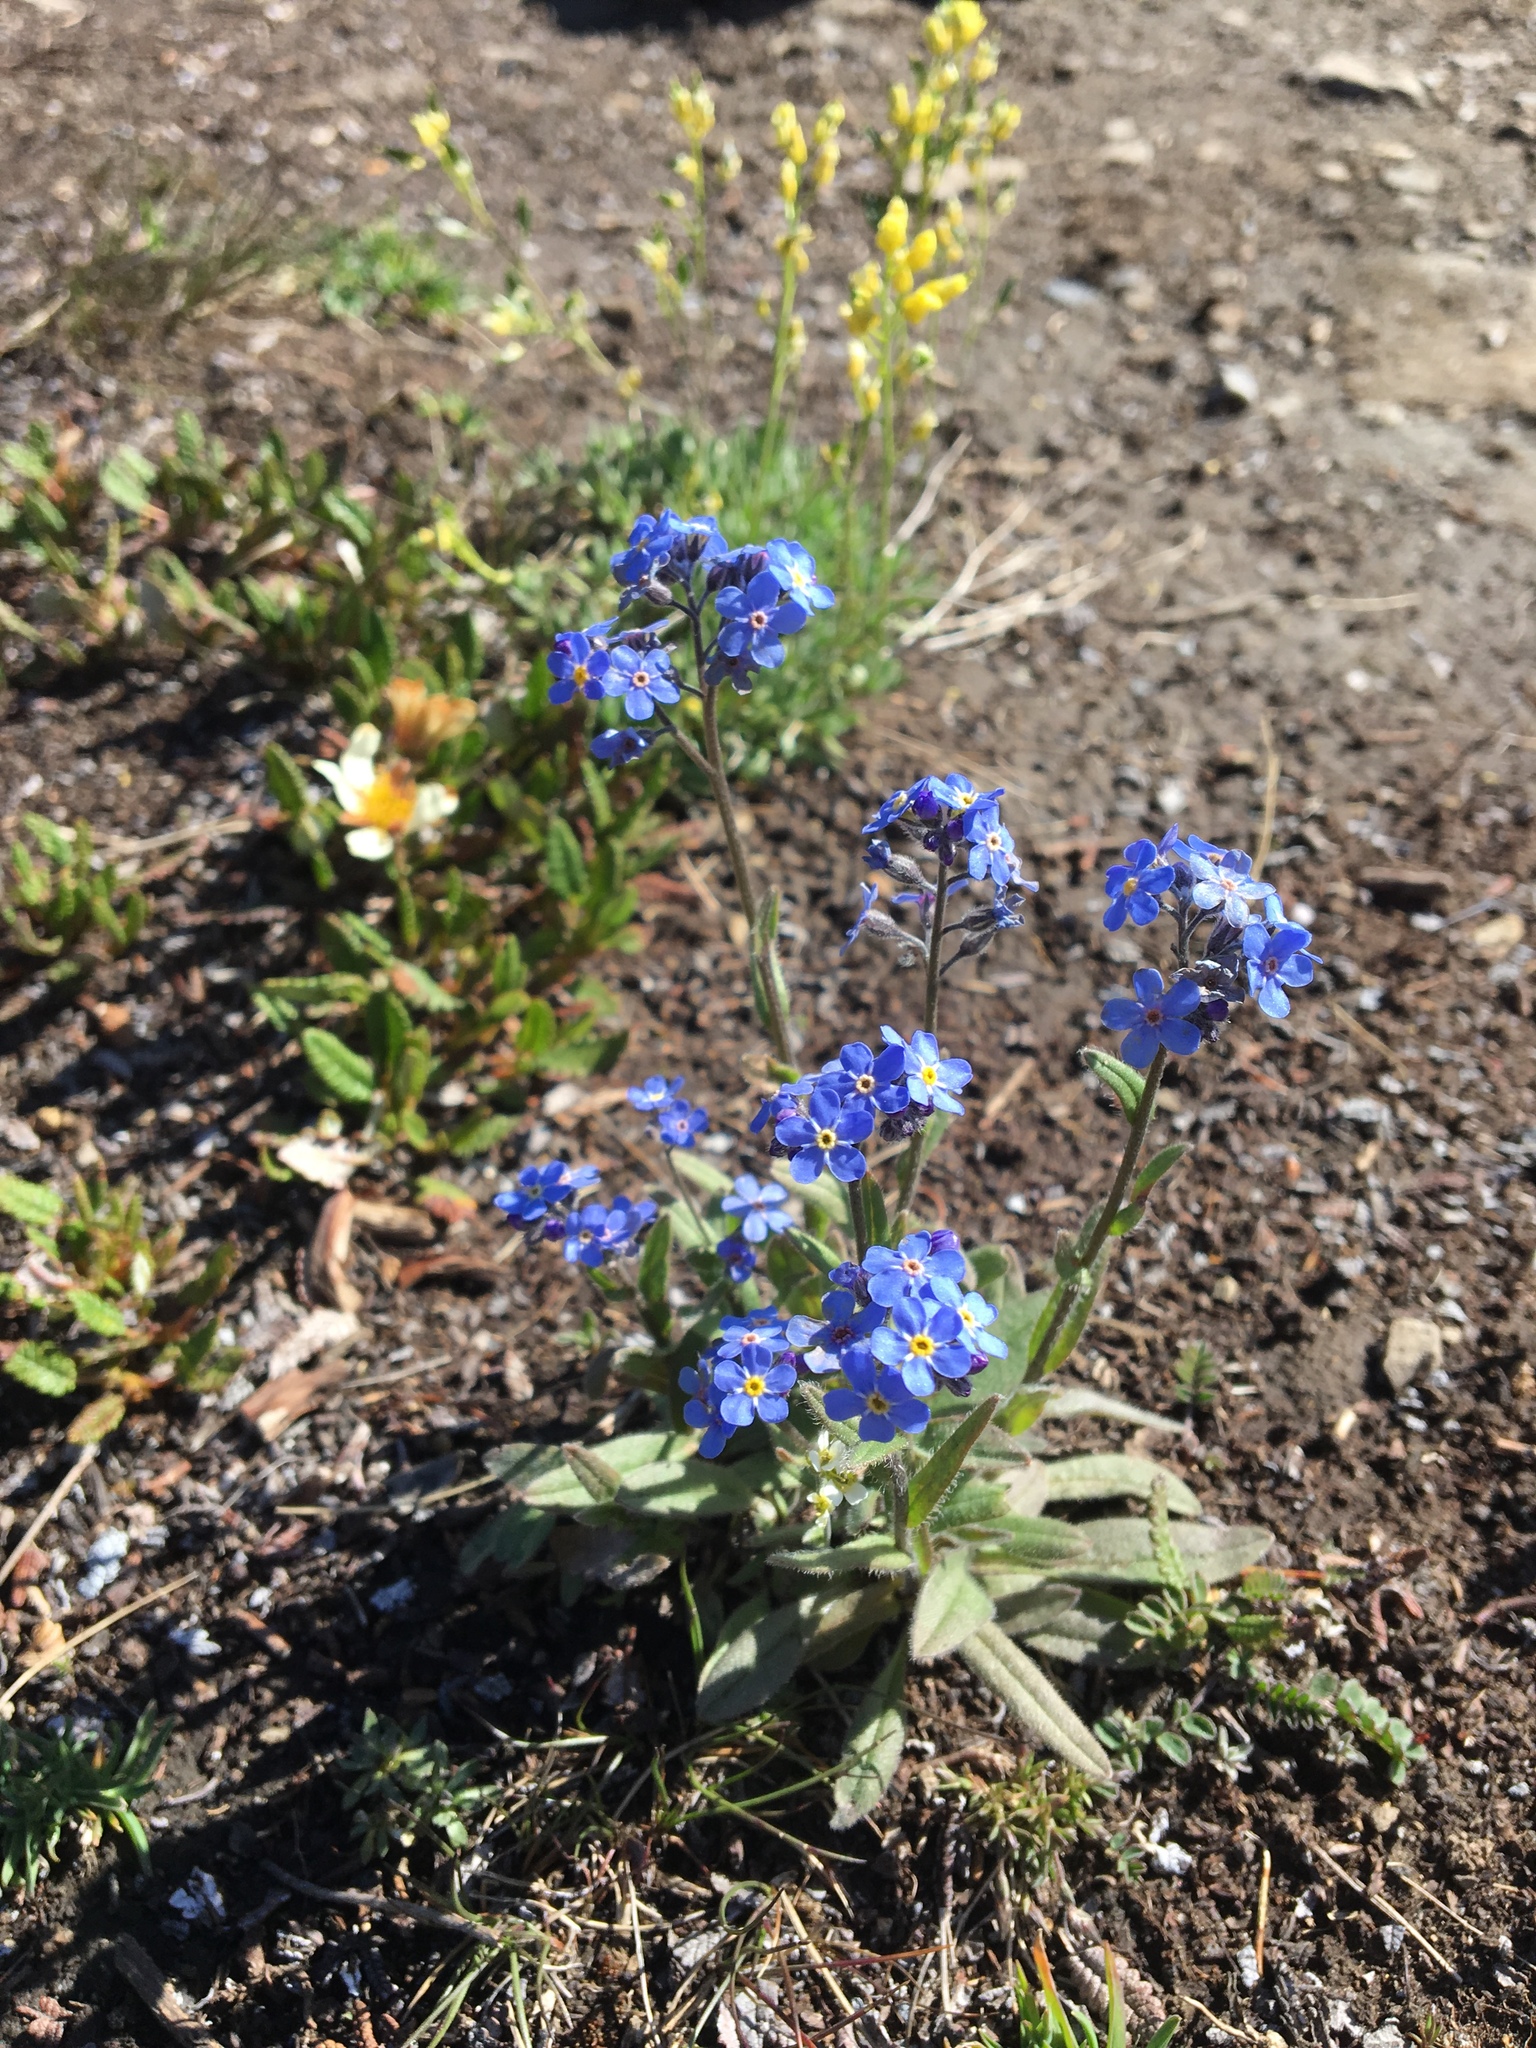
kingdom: Plantae
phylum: Tracheophyta
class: Magnoliopsida
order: Boraginales
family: Boraginaceae
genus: Myosotis
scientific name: Myosotis asiatica
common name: Asian forget-me-not
